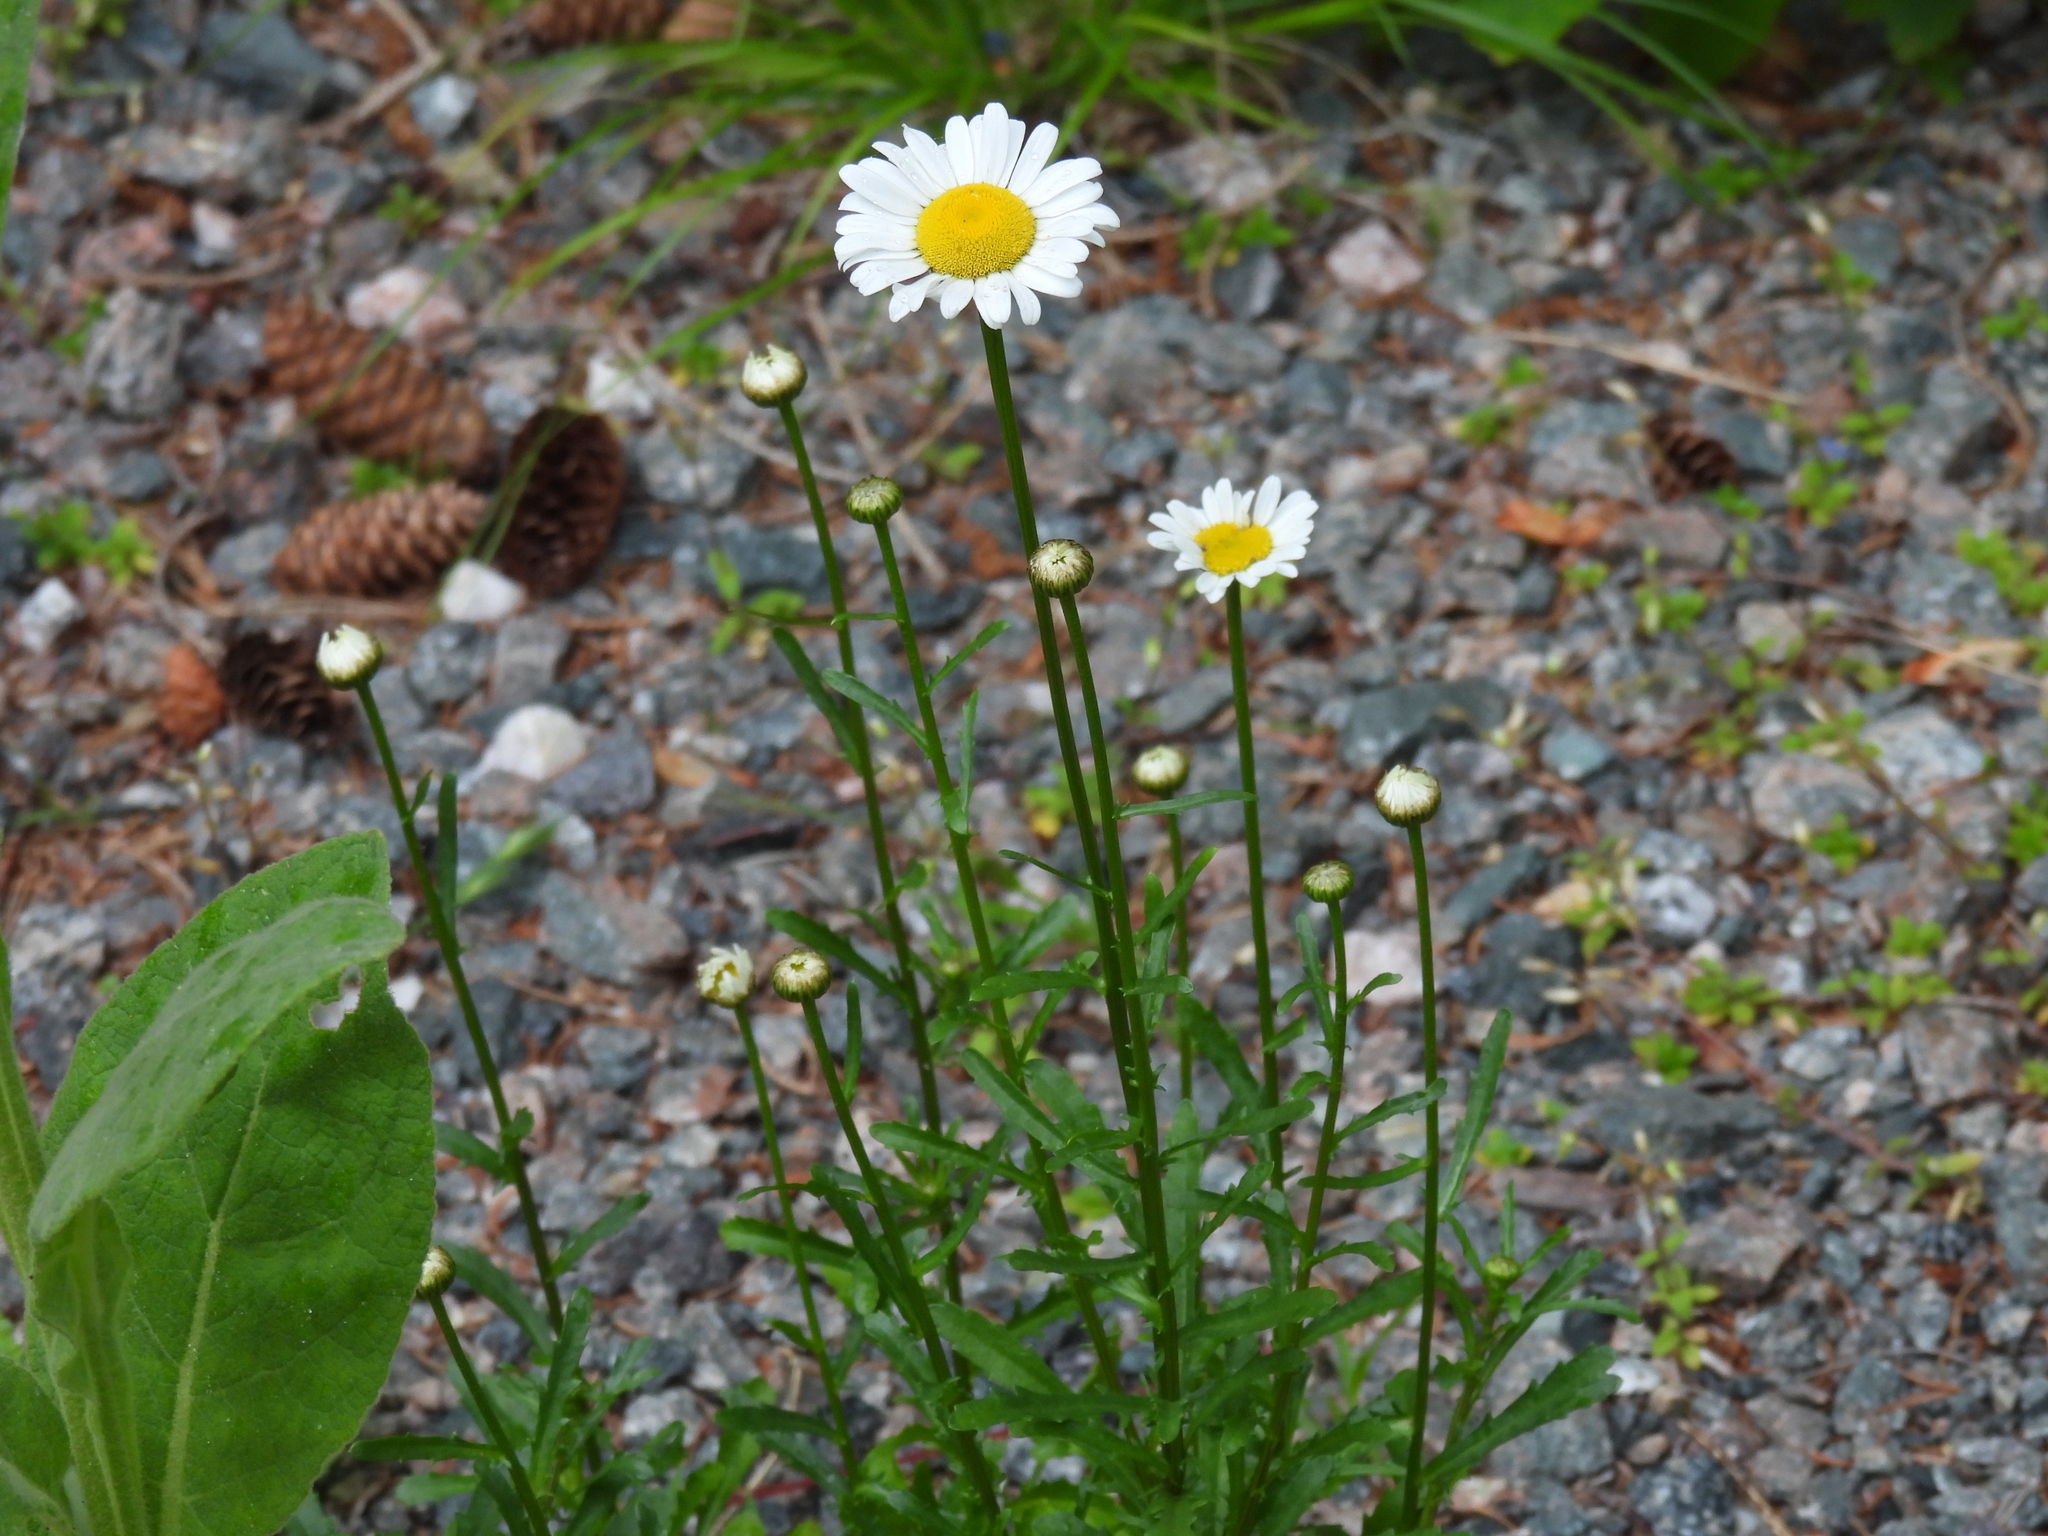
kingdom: Plantae
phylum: Tracheophyta
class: Magnoliopsida
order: Asterales
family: Asteraceae
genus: Leucanthemum
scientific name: Leucanthemum vulgare
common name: Oxeye daisy
